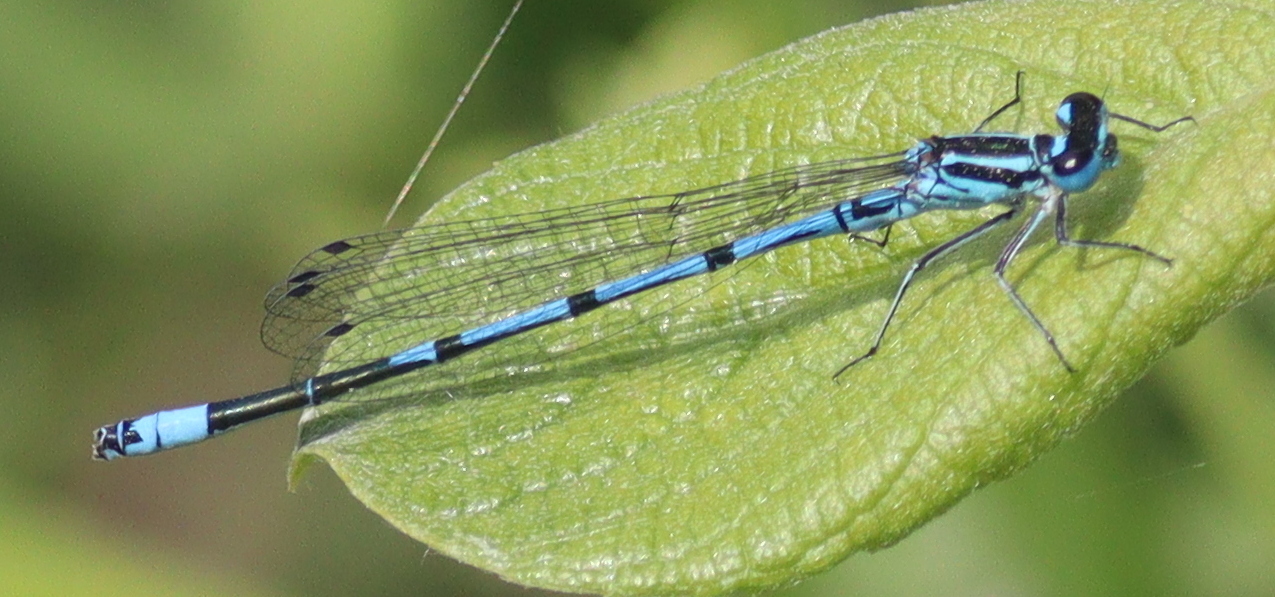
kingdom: Animalia
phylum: Arthropoda
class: Insecta
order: Odonata
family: Coenagrionidae
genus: Coenagrion
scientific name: Coenagrion puella
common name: Azure damselfly
